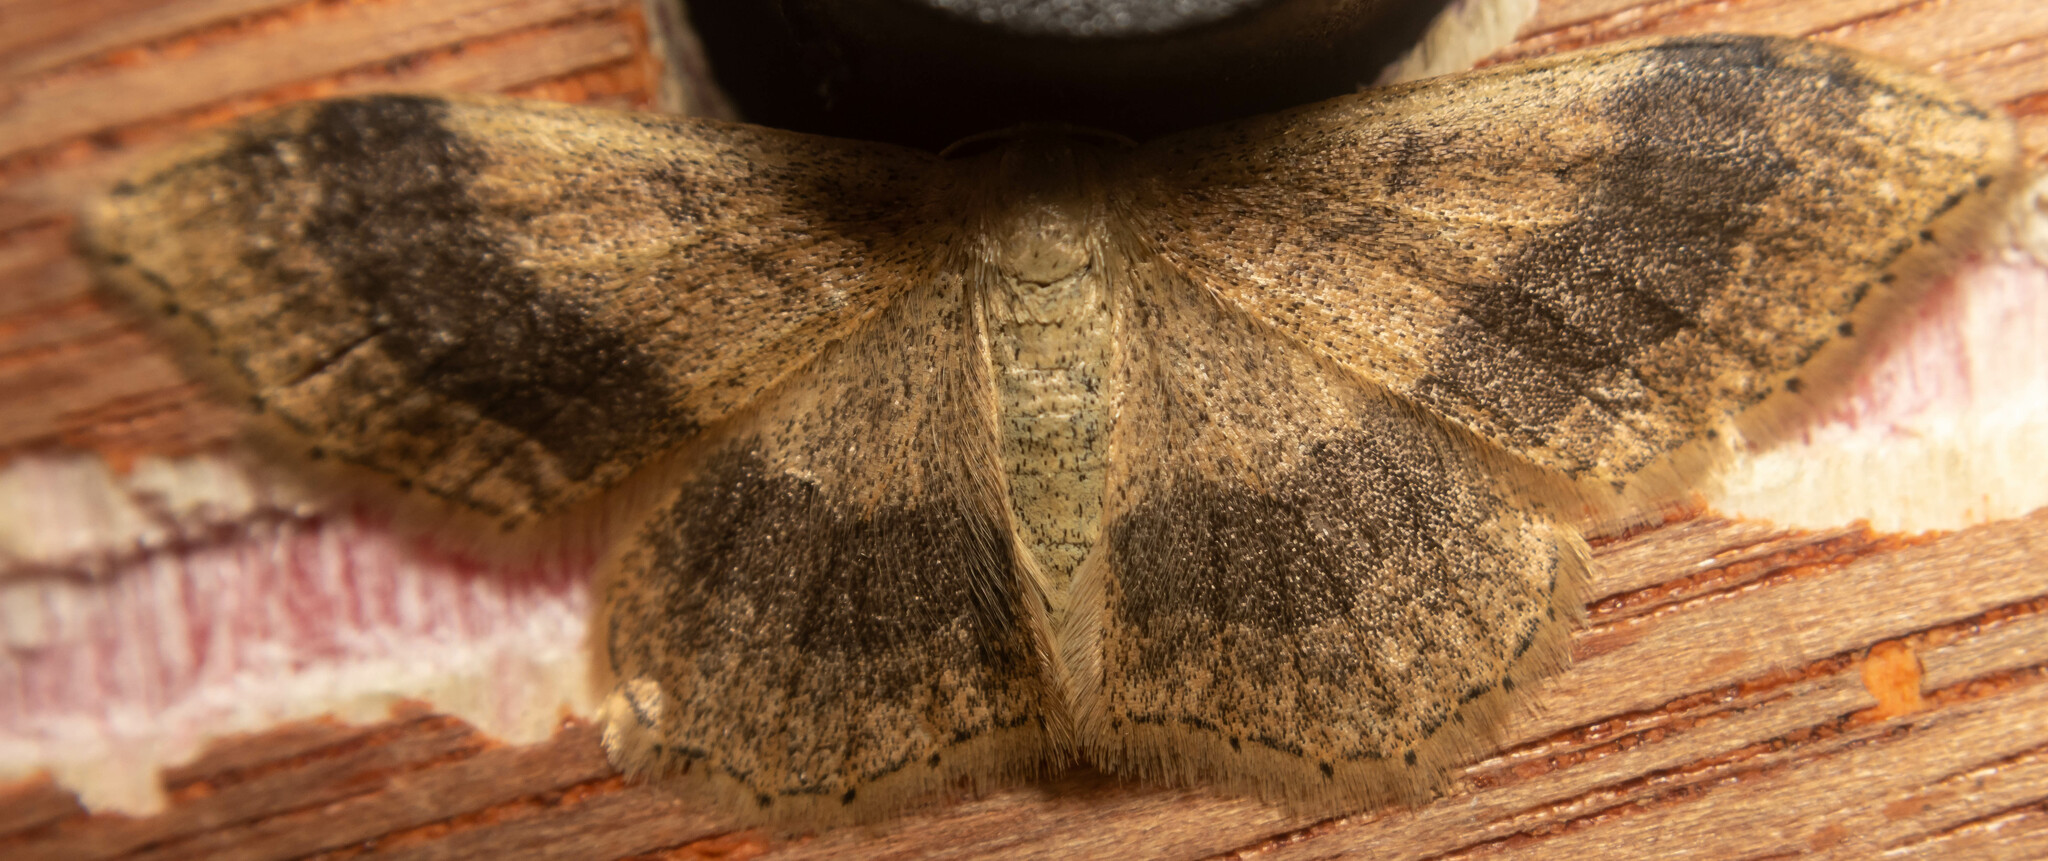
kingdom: Animalia
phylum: Arthropoda
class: Insecta
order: Lepidoptera
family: Geometridae
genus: Idaea
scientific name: Idaea aversata
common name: Riband wave
